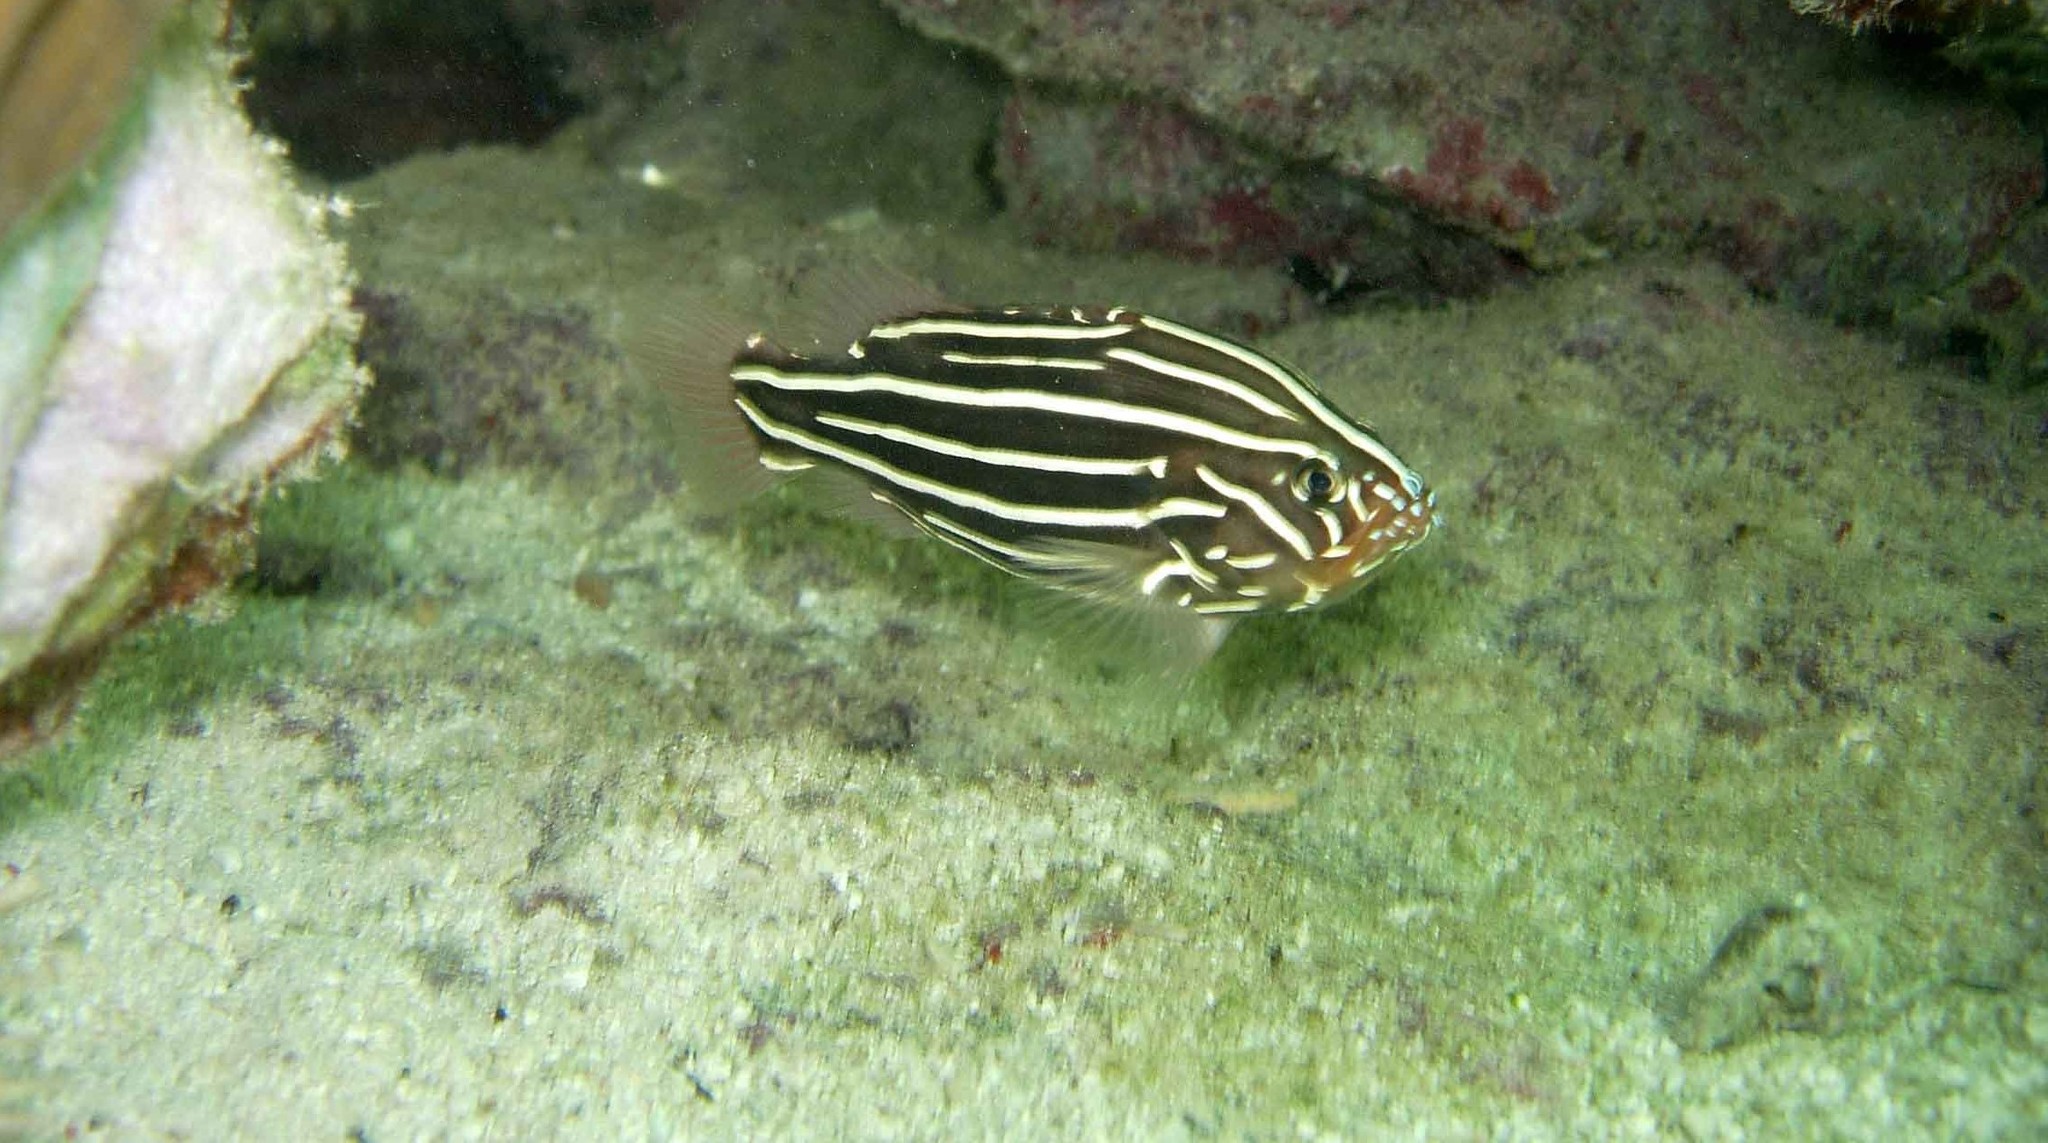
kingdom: Animalia
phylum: Chordata
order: Perciformes
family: Serranidae
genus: Grammistes
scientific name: Grammistes sexlineatus
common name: Sixline soapfish
